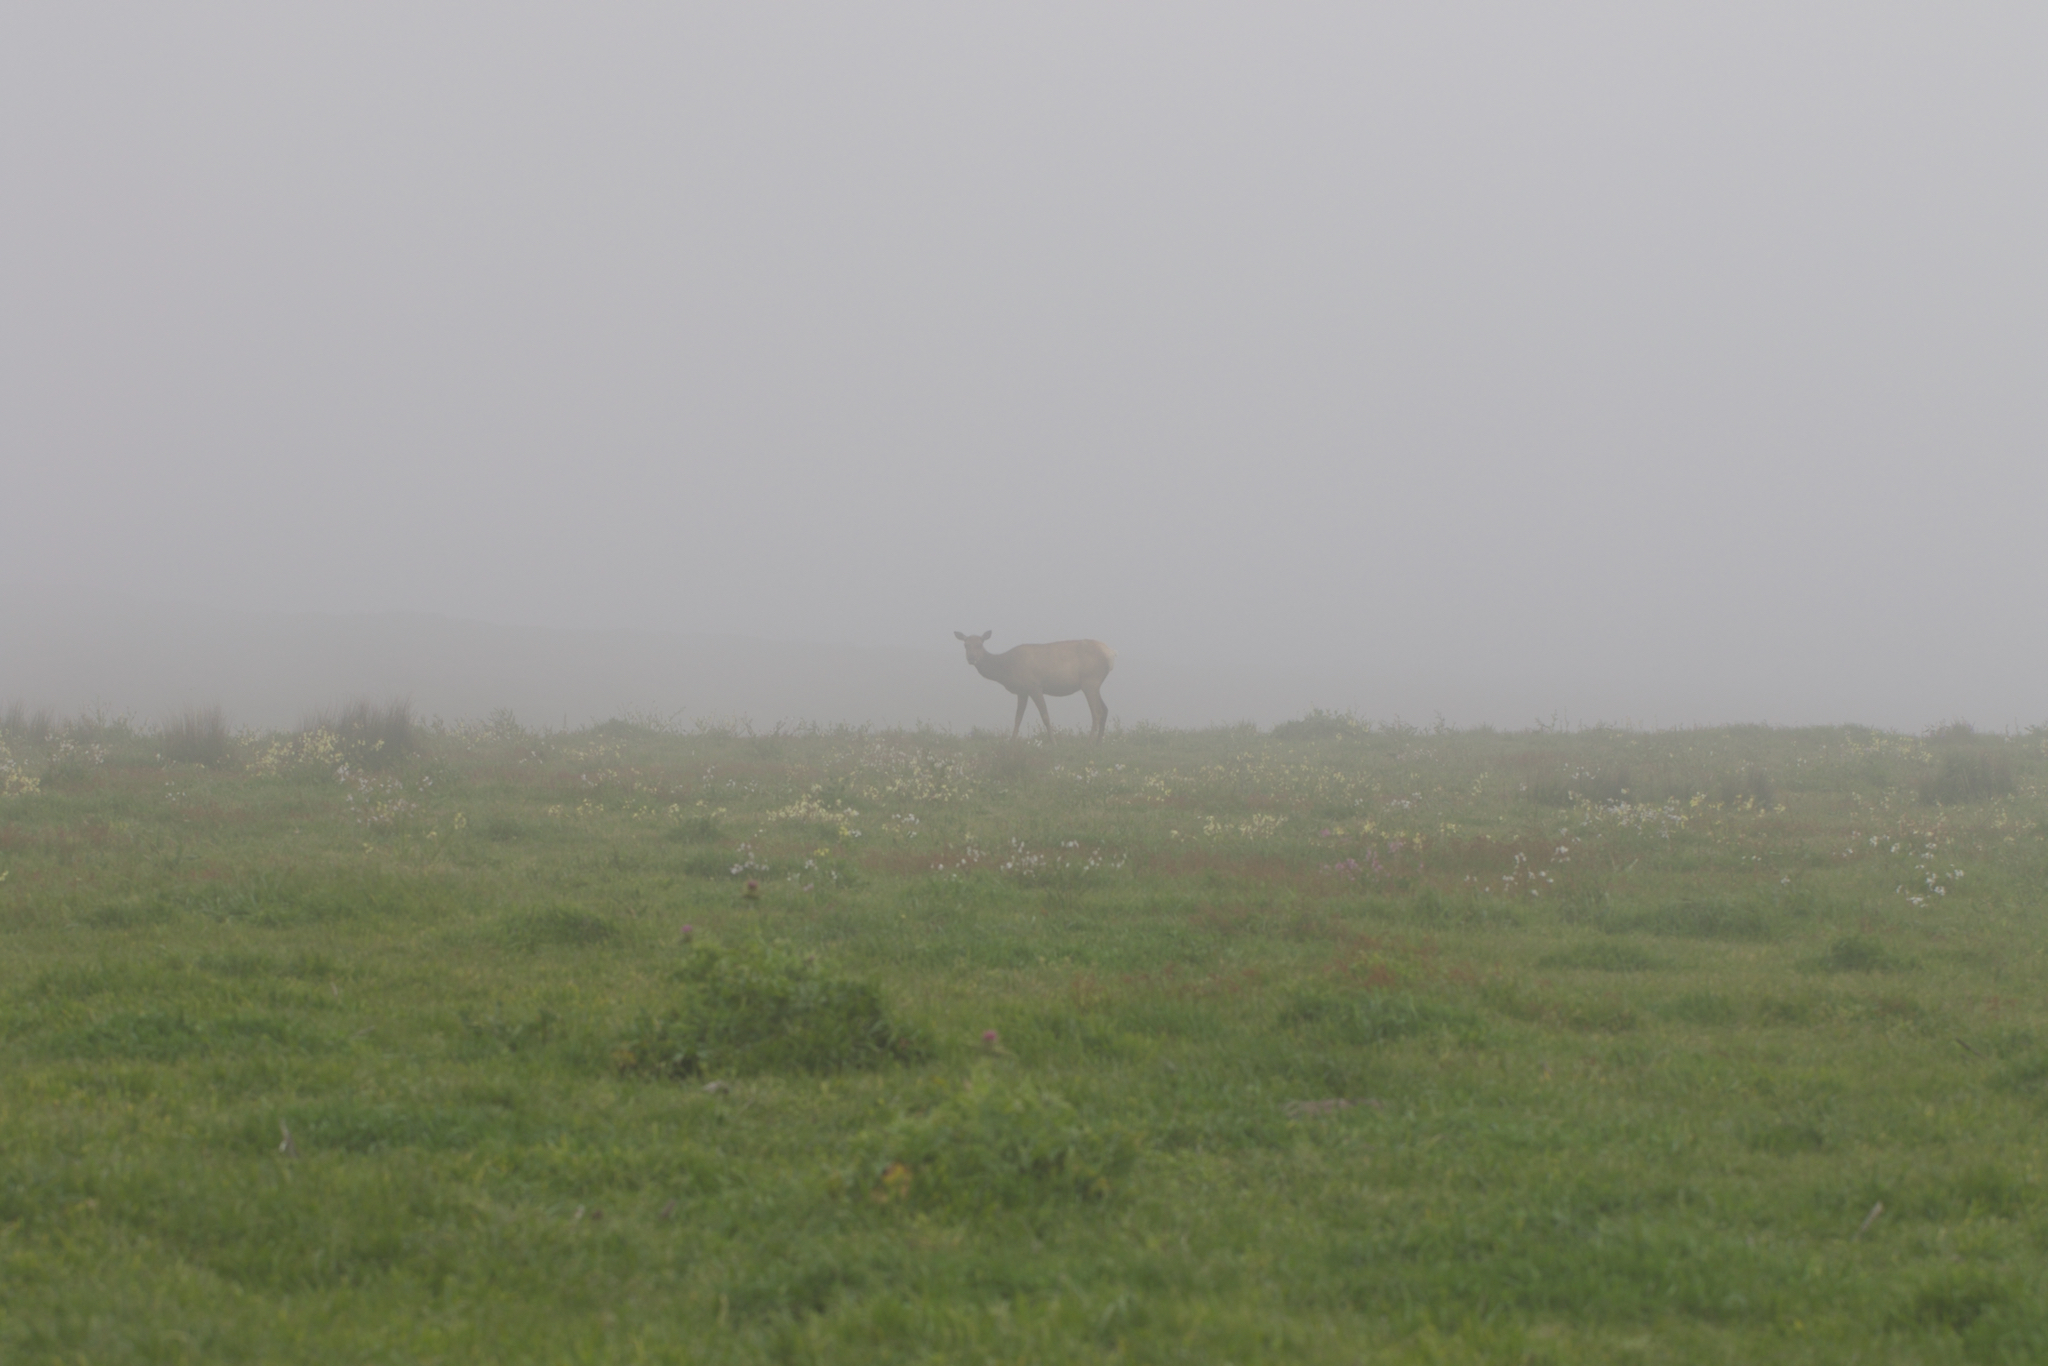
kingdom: Animalia
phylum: Chordata
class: Mammalia
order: Artiodactyla
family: Cervidae
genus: Cervus
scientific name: Cervus elaphus
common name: Red deer
